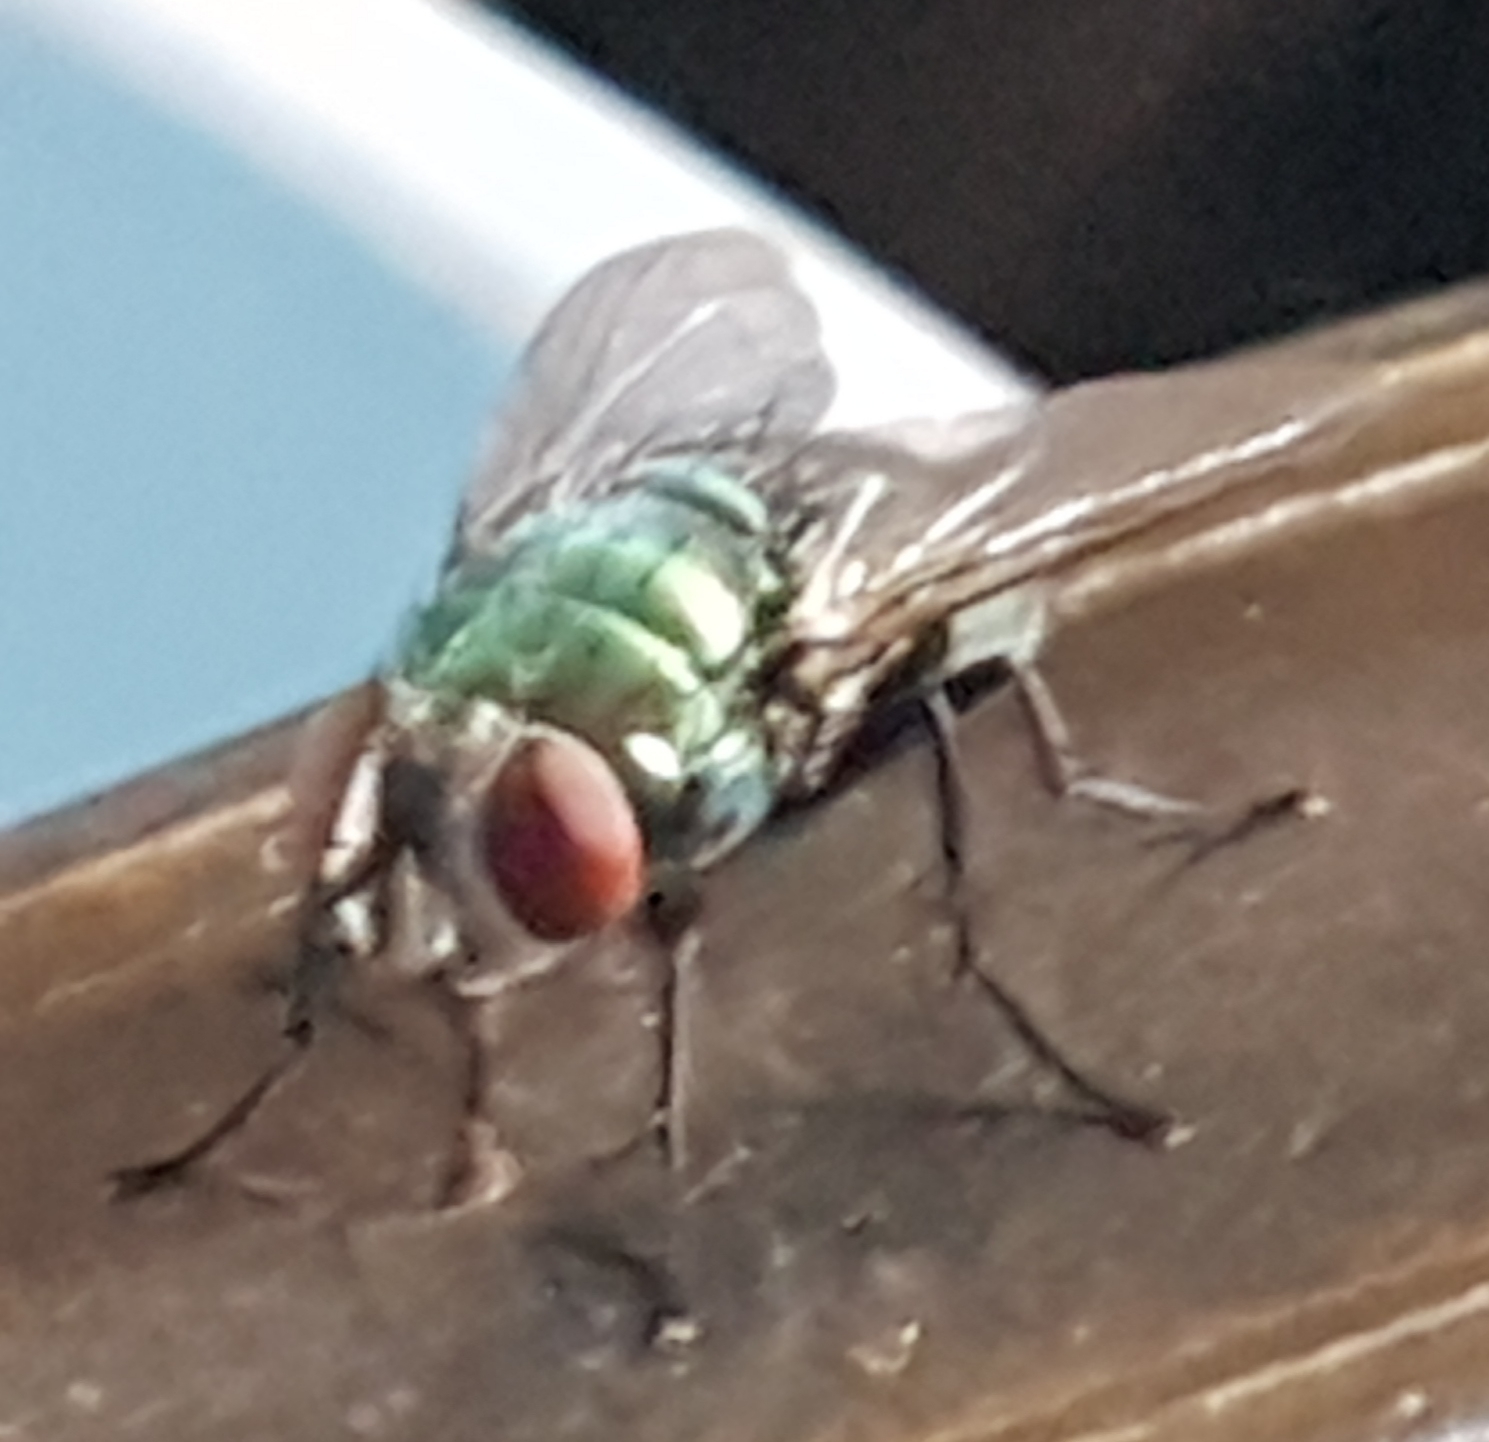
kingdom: Animalia
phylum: Arthropoda
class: Insecta
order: Diptera
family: Calliphoridae
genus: Lucilia
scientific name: Lucilia sericata
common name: Blow fly
